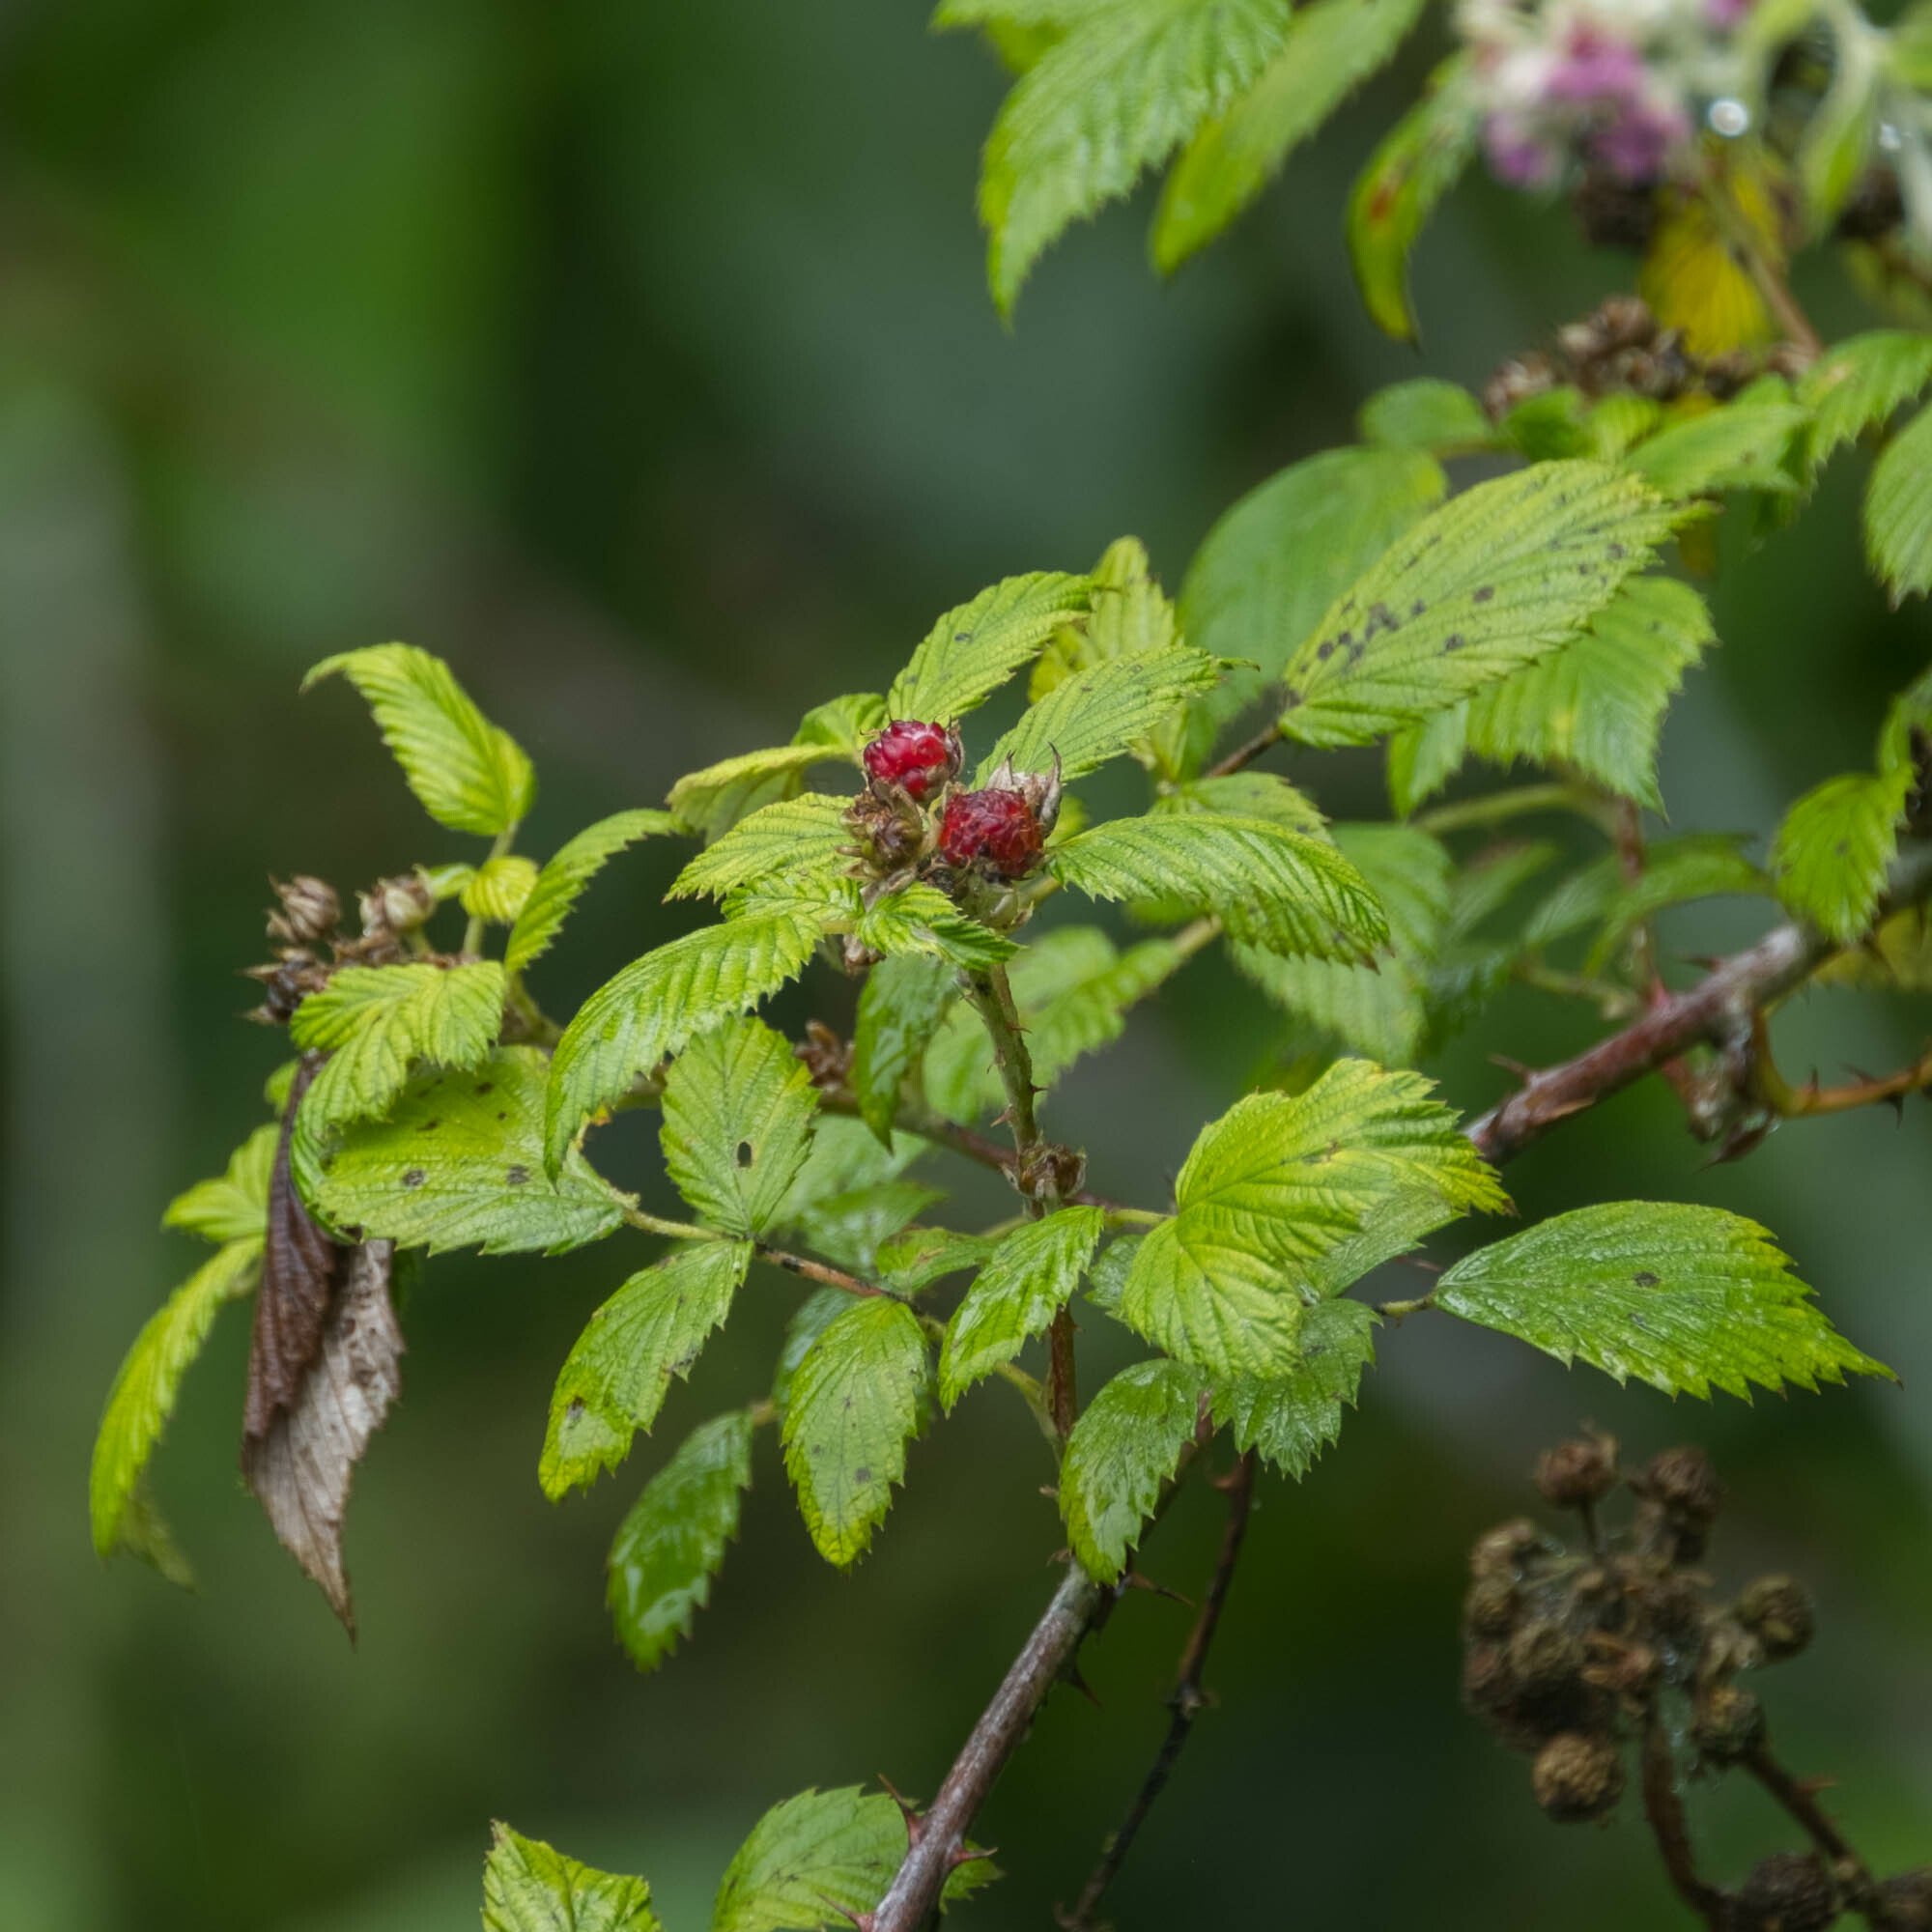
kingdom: Plantae
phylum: Tracheophyta
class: Magnoliopsida
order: Rosales
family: Rosaceae
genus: Rubus
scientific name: Rubus niveus
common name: Snowpeaks raspberry
